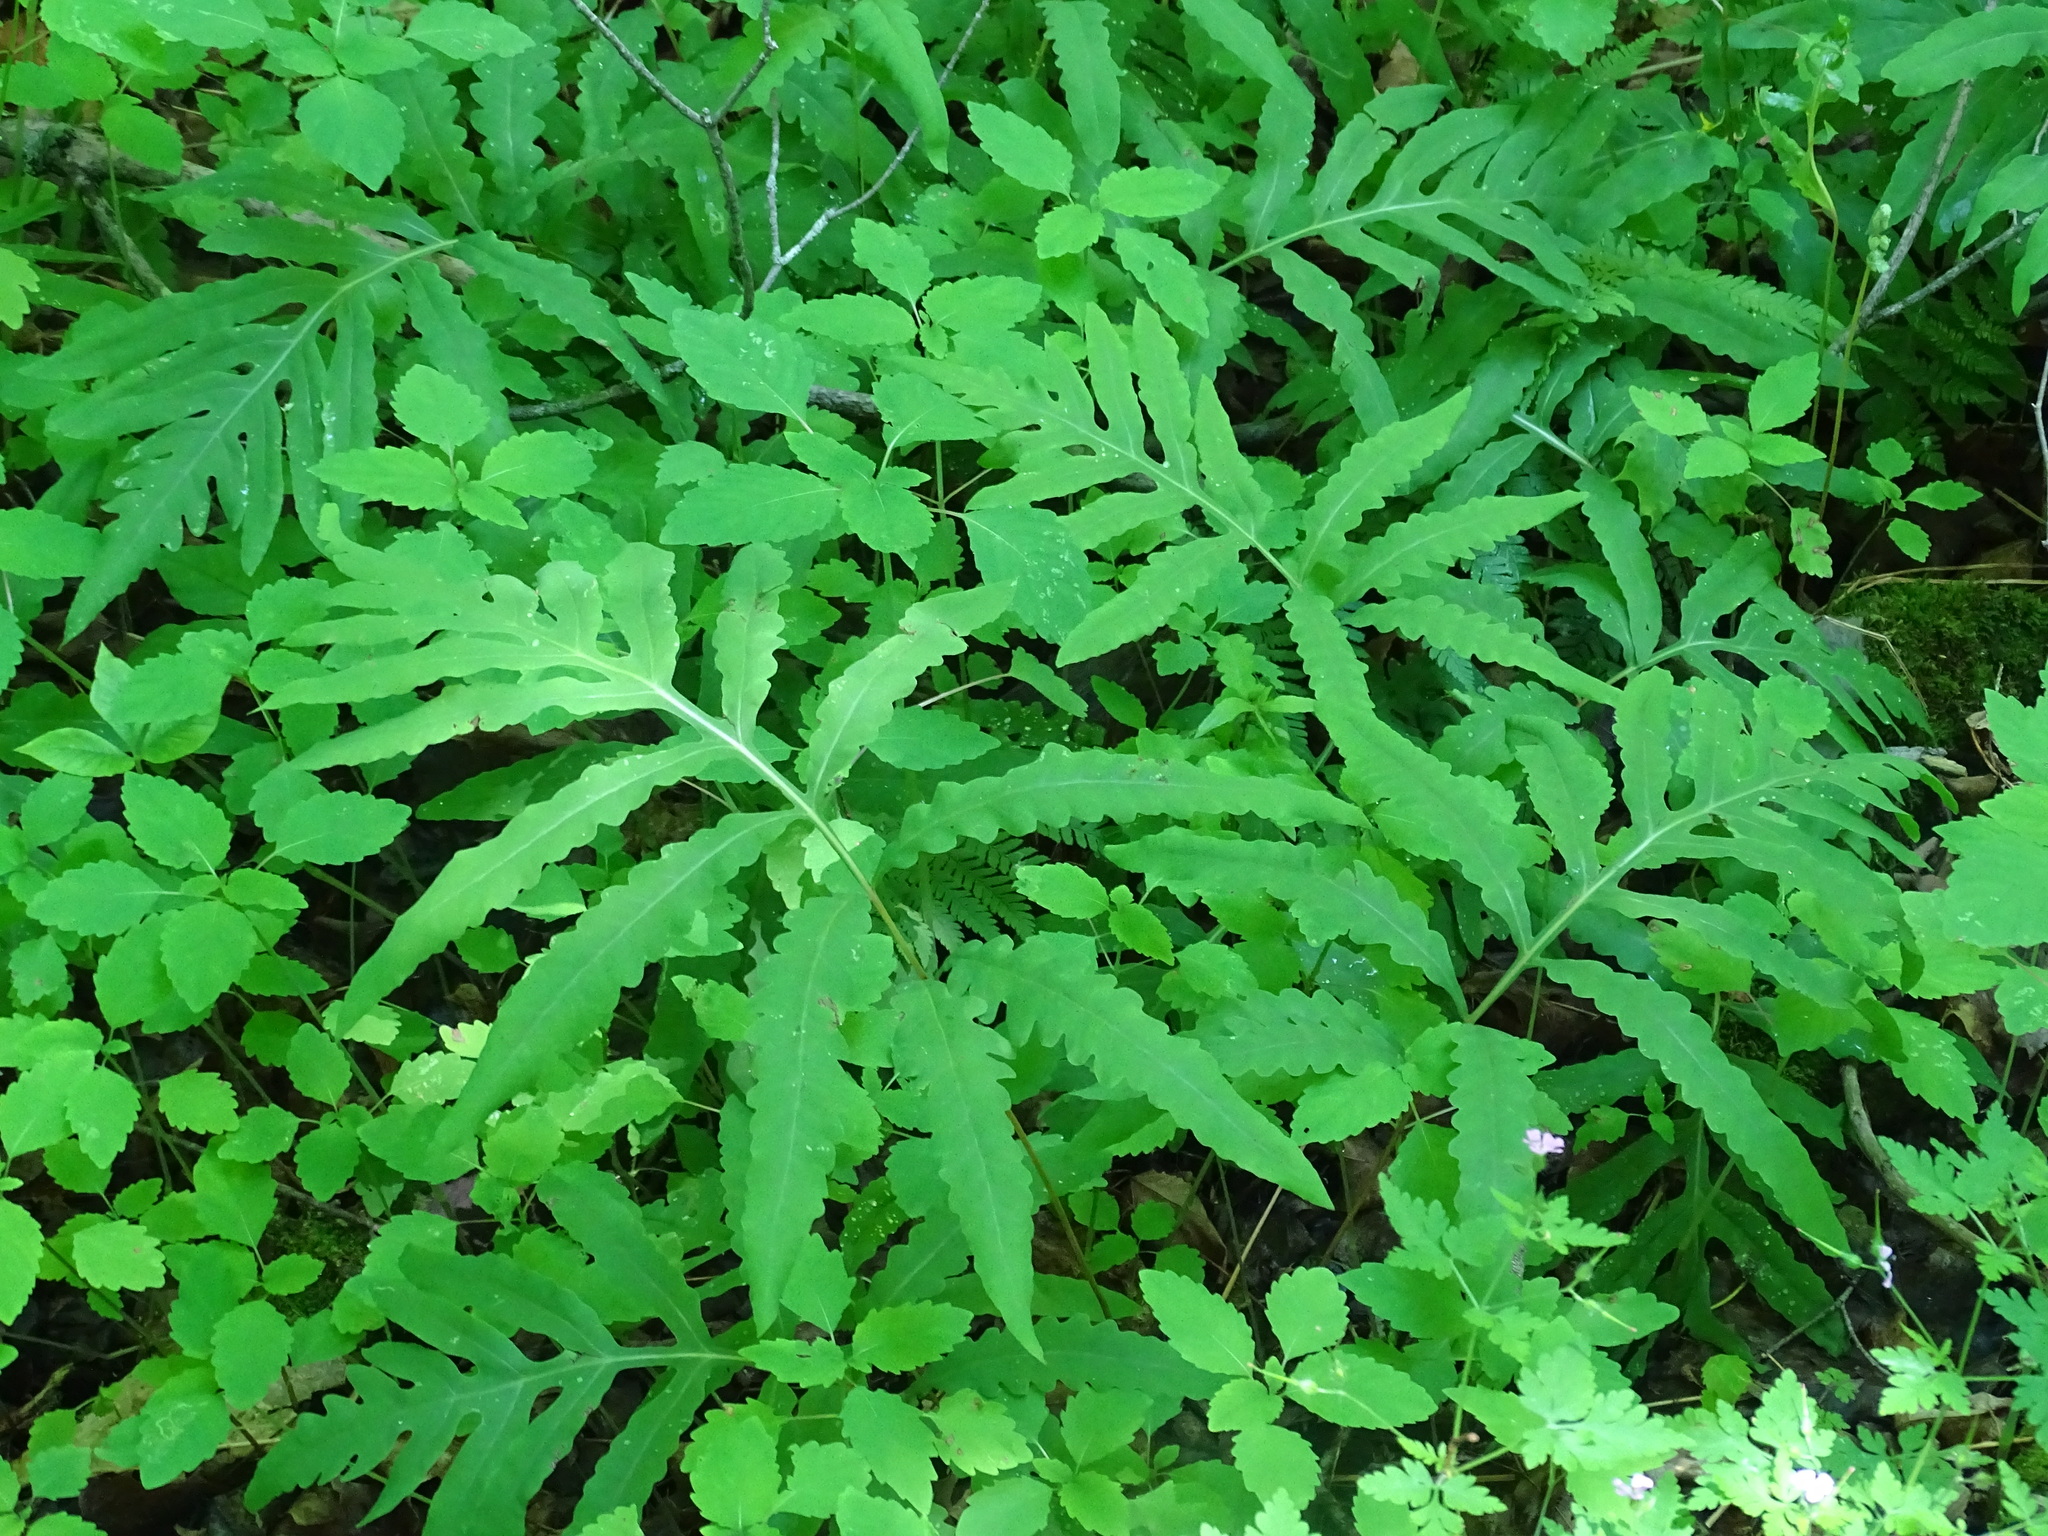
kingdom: Plantae
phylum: Tracheophyta
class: Polypodiopsida
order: Polypodiales
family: Onocleaceae
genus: Onoclea
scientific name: Onoclea sensibilis
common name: Sensitive fern
